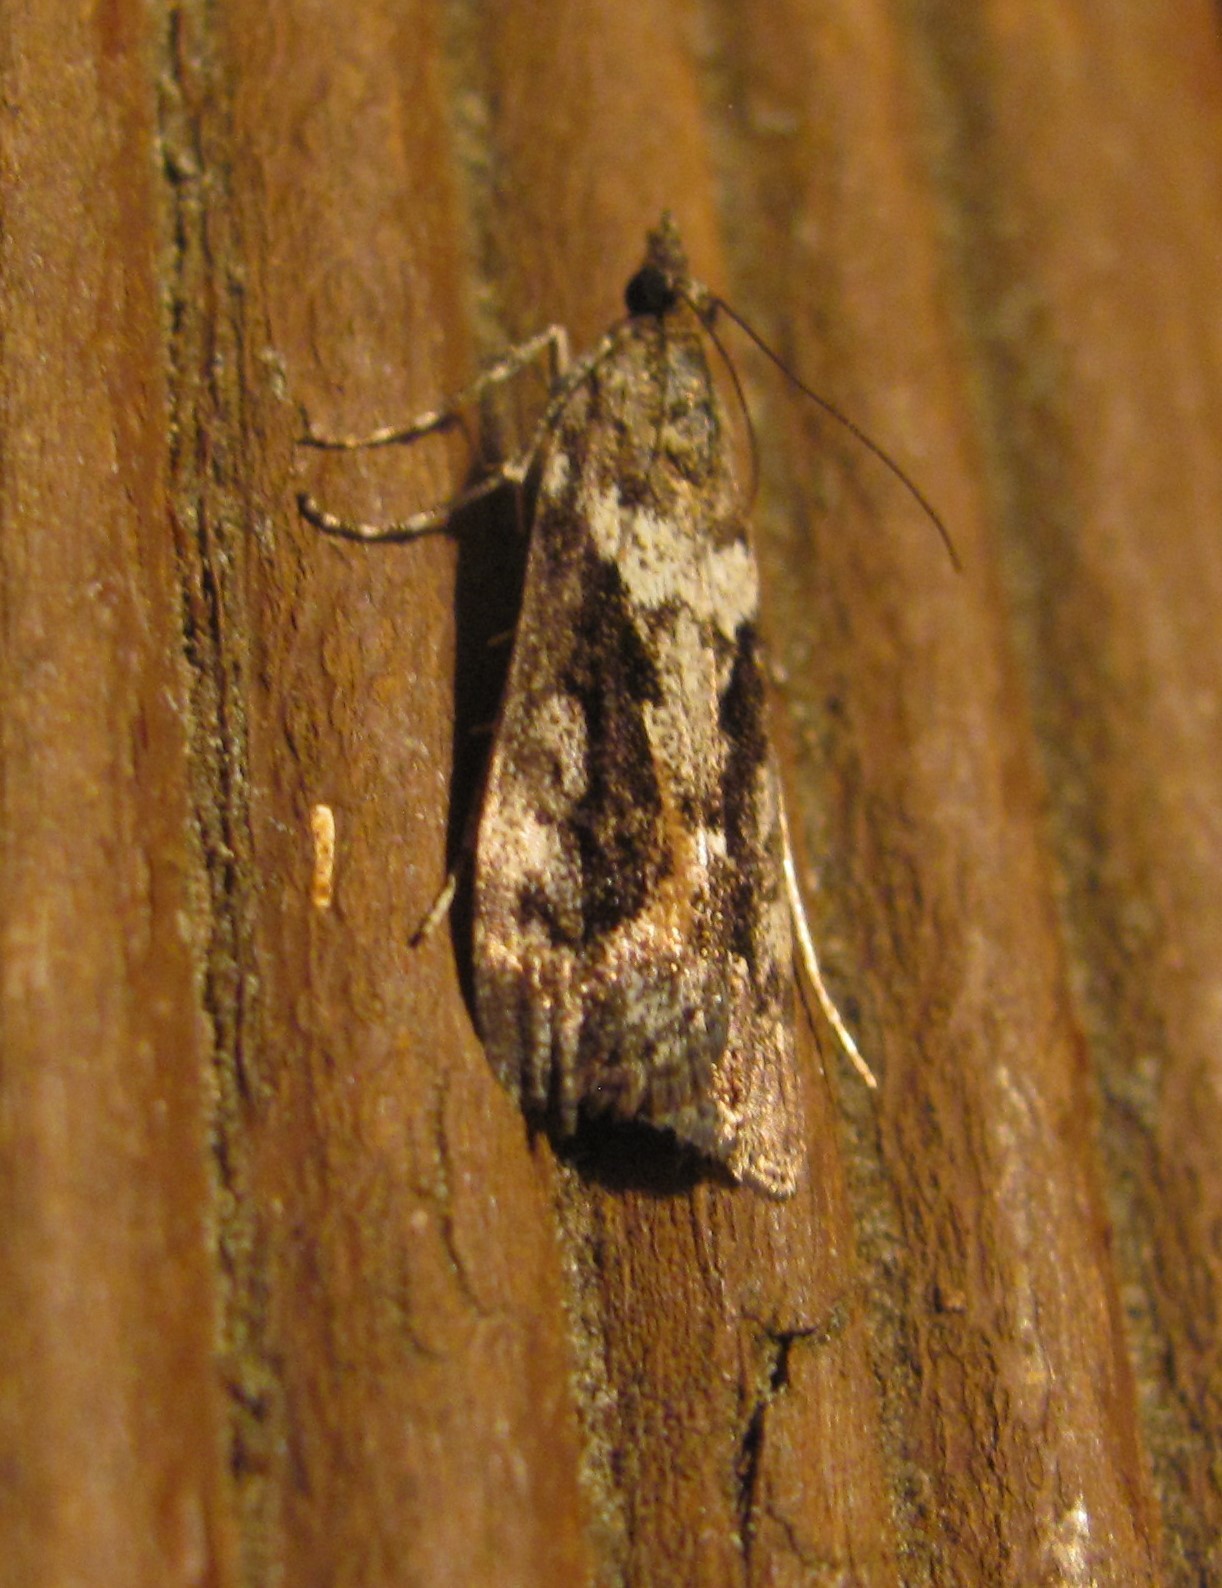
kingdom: Animalia
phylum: Arthropoda
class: Insecta
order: Lepidoptera
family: Crambidae
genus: Eudonia
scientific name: Eudonia submarginalis
